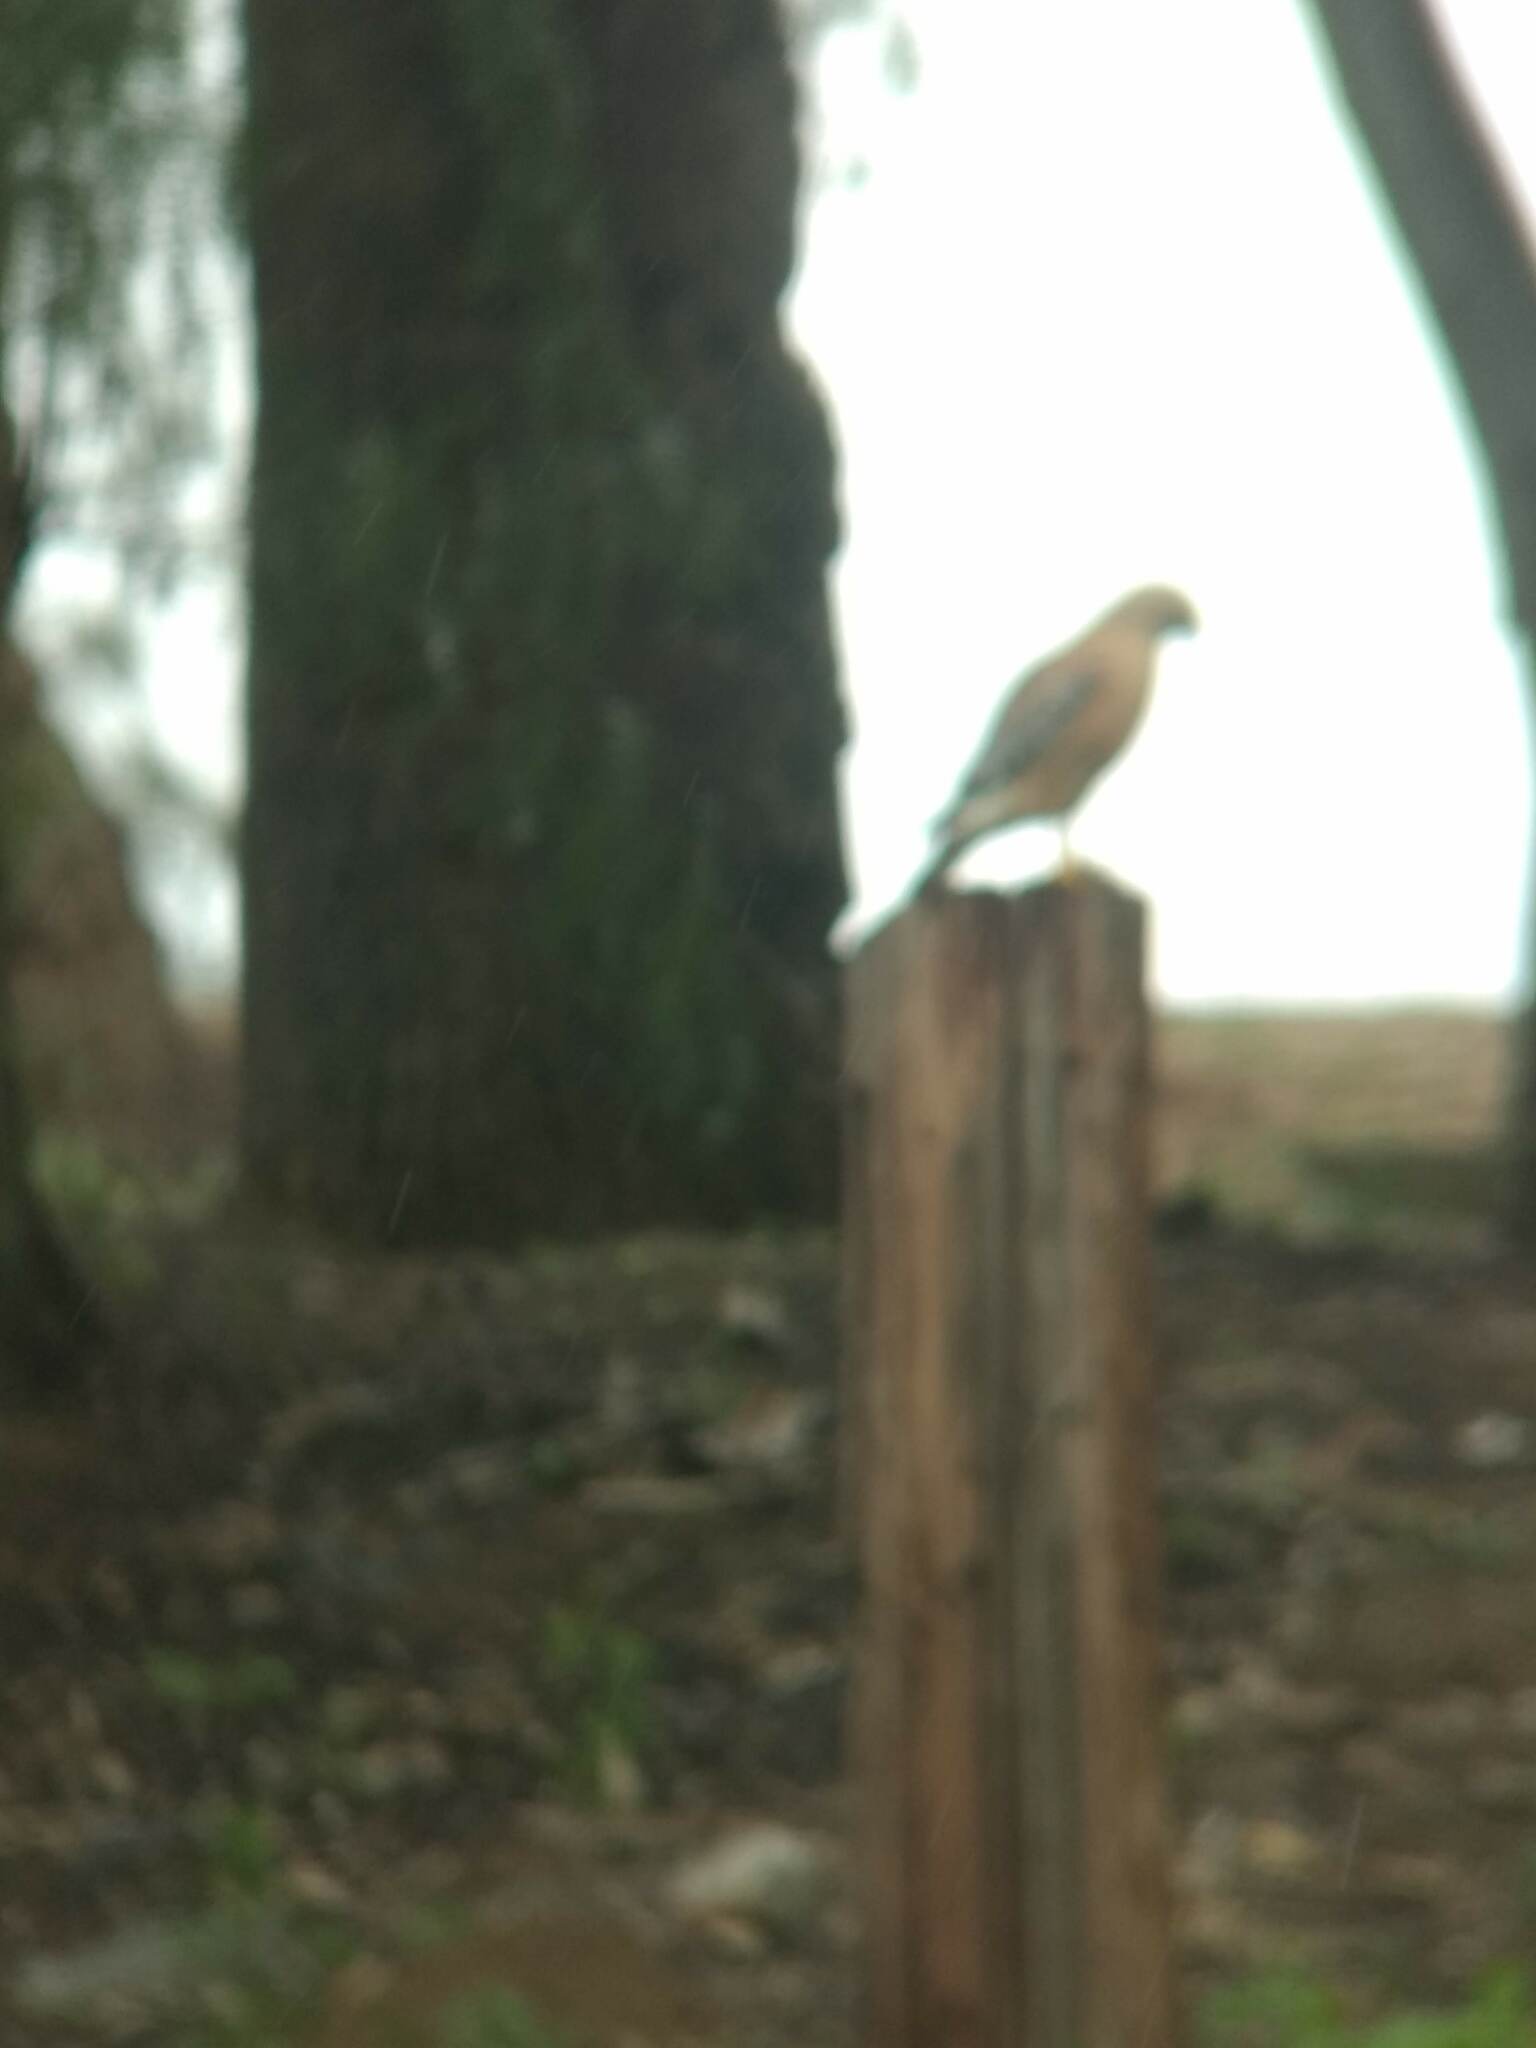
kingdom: Animalia
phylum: Chordata
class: Aves
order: Accipitriformes
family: Accipitridae
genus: Buteo
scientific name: Buteo lineatus
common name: Red-shouldered hawk
